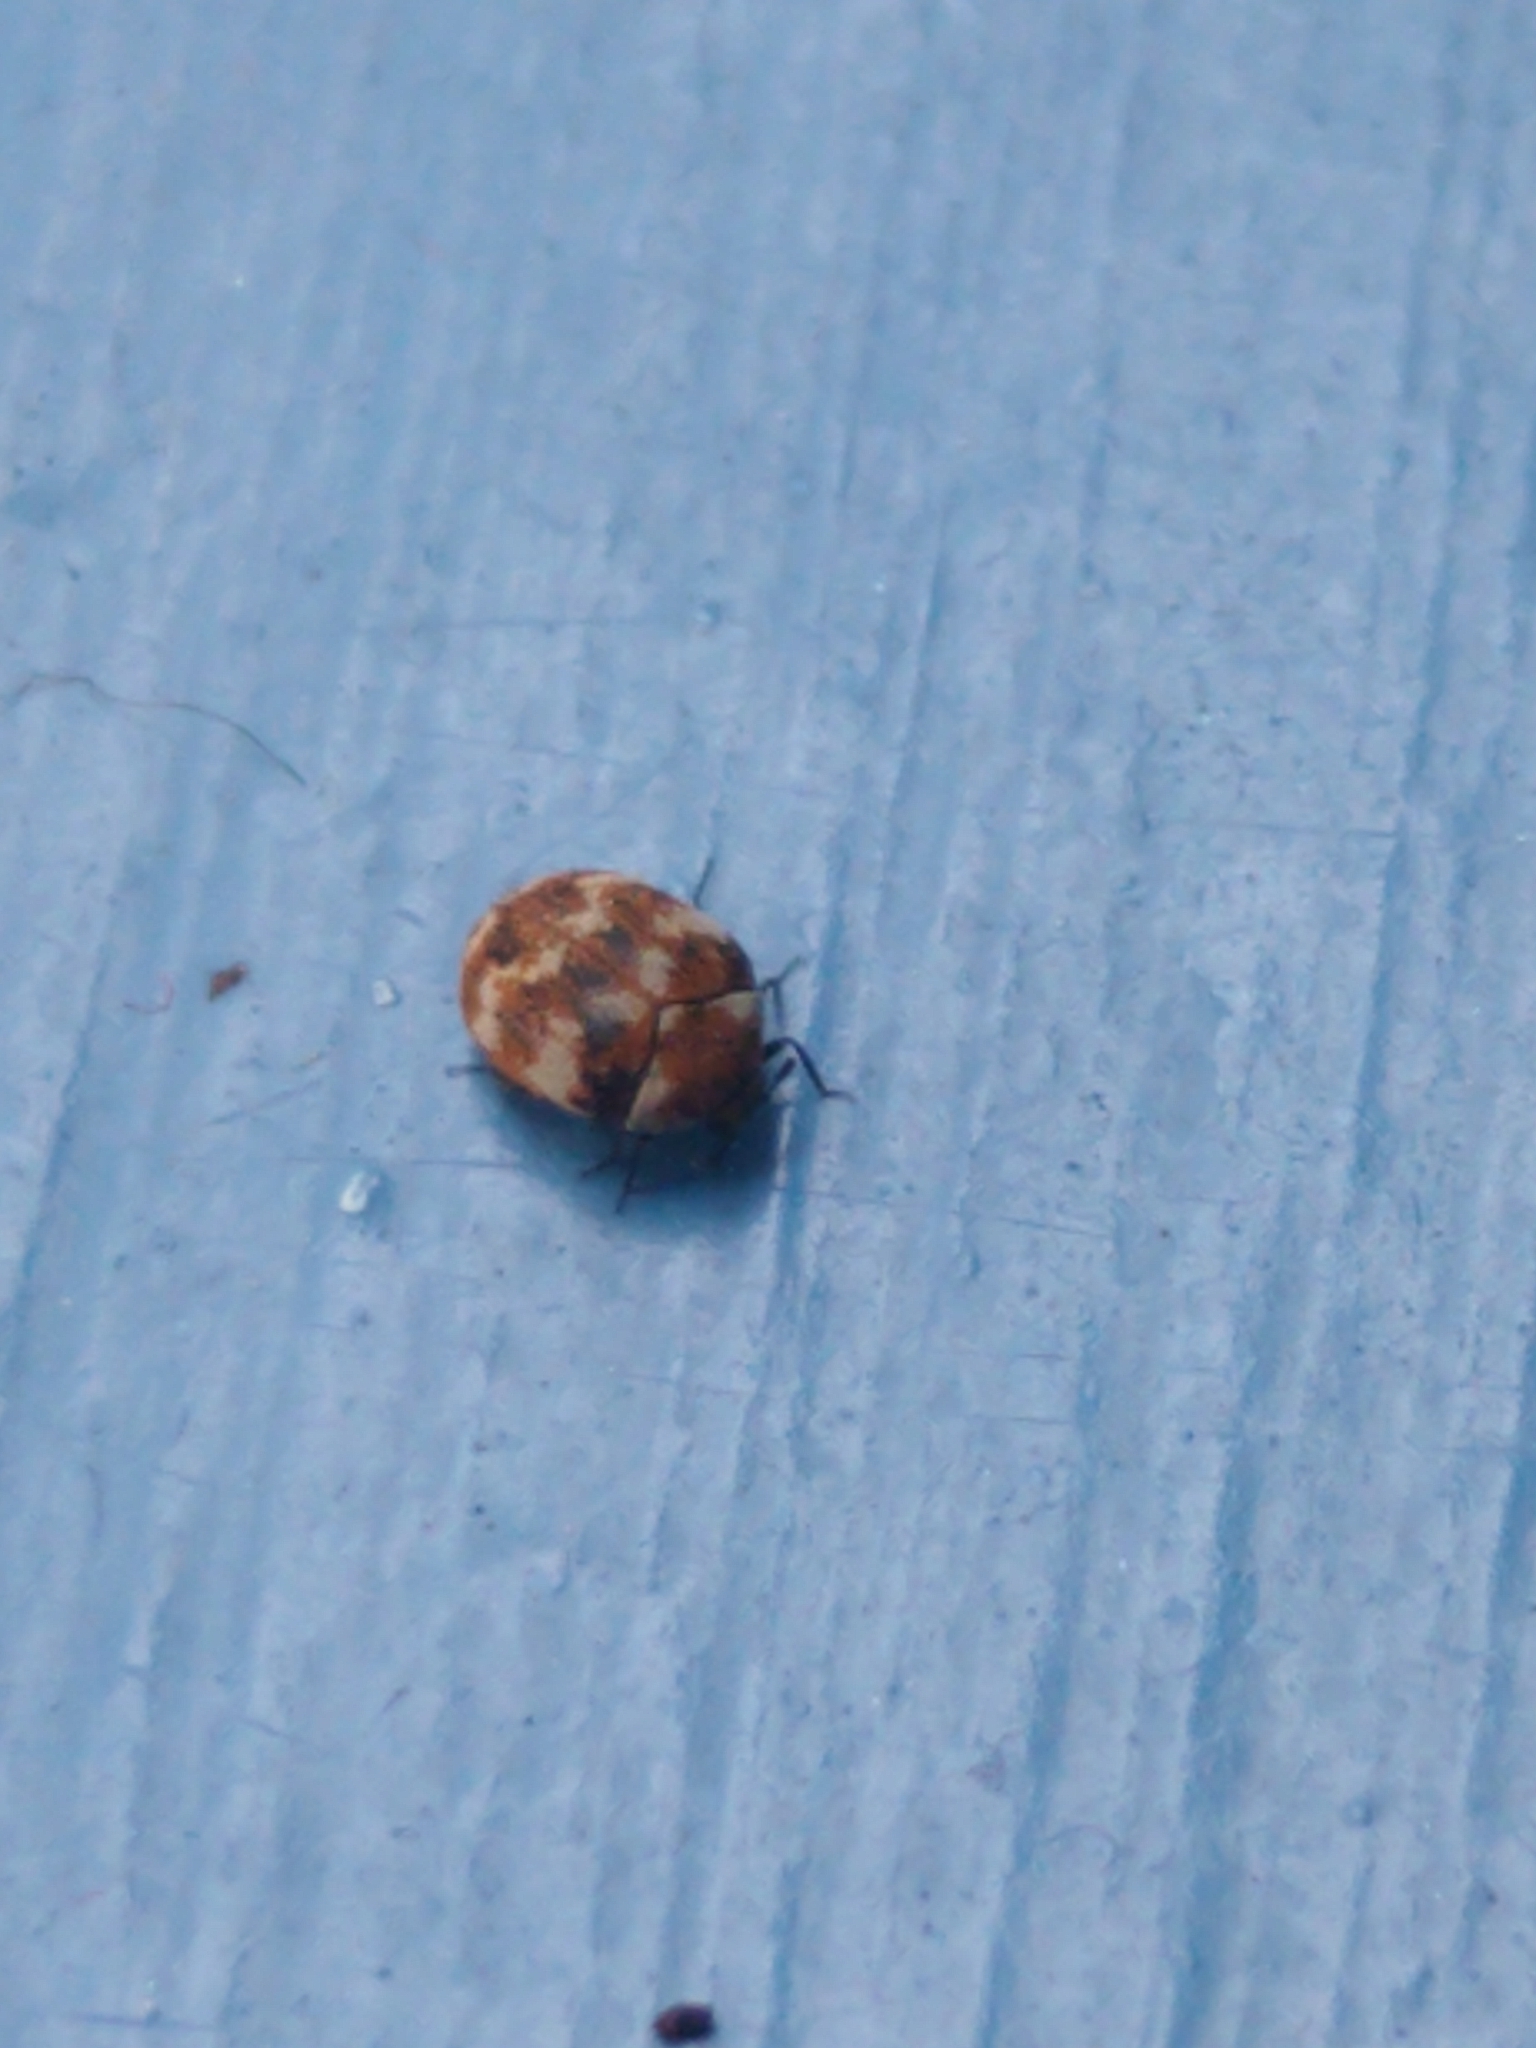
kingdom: Animalia
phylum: Arthropoda
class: Insecta
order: Coleoptera
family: Dermestidae
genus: Anthrenus
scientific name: Anthrenus verbasci
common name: Varied carpet beetle
